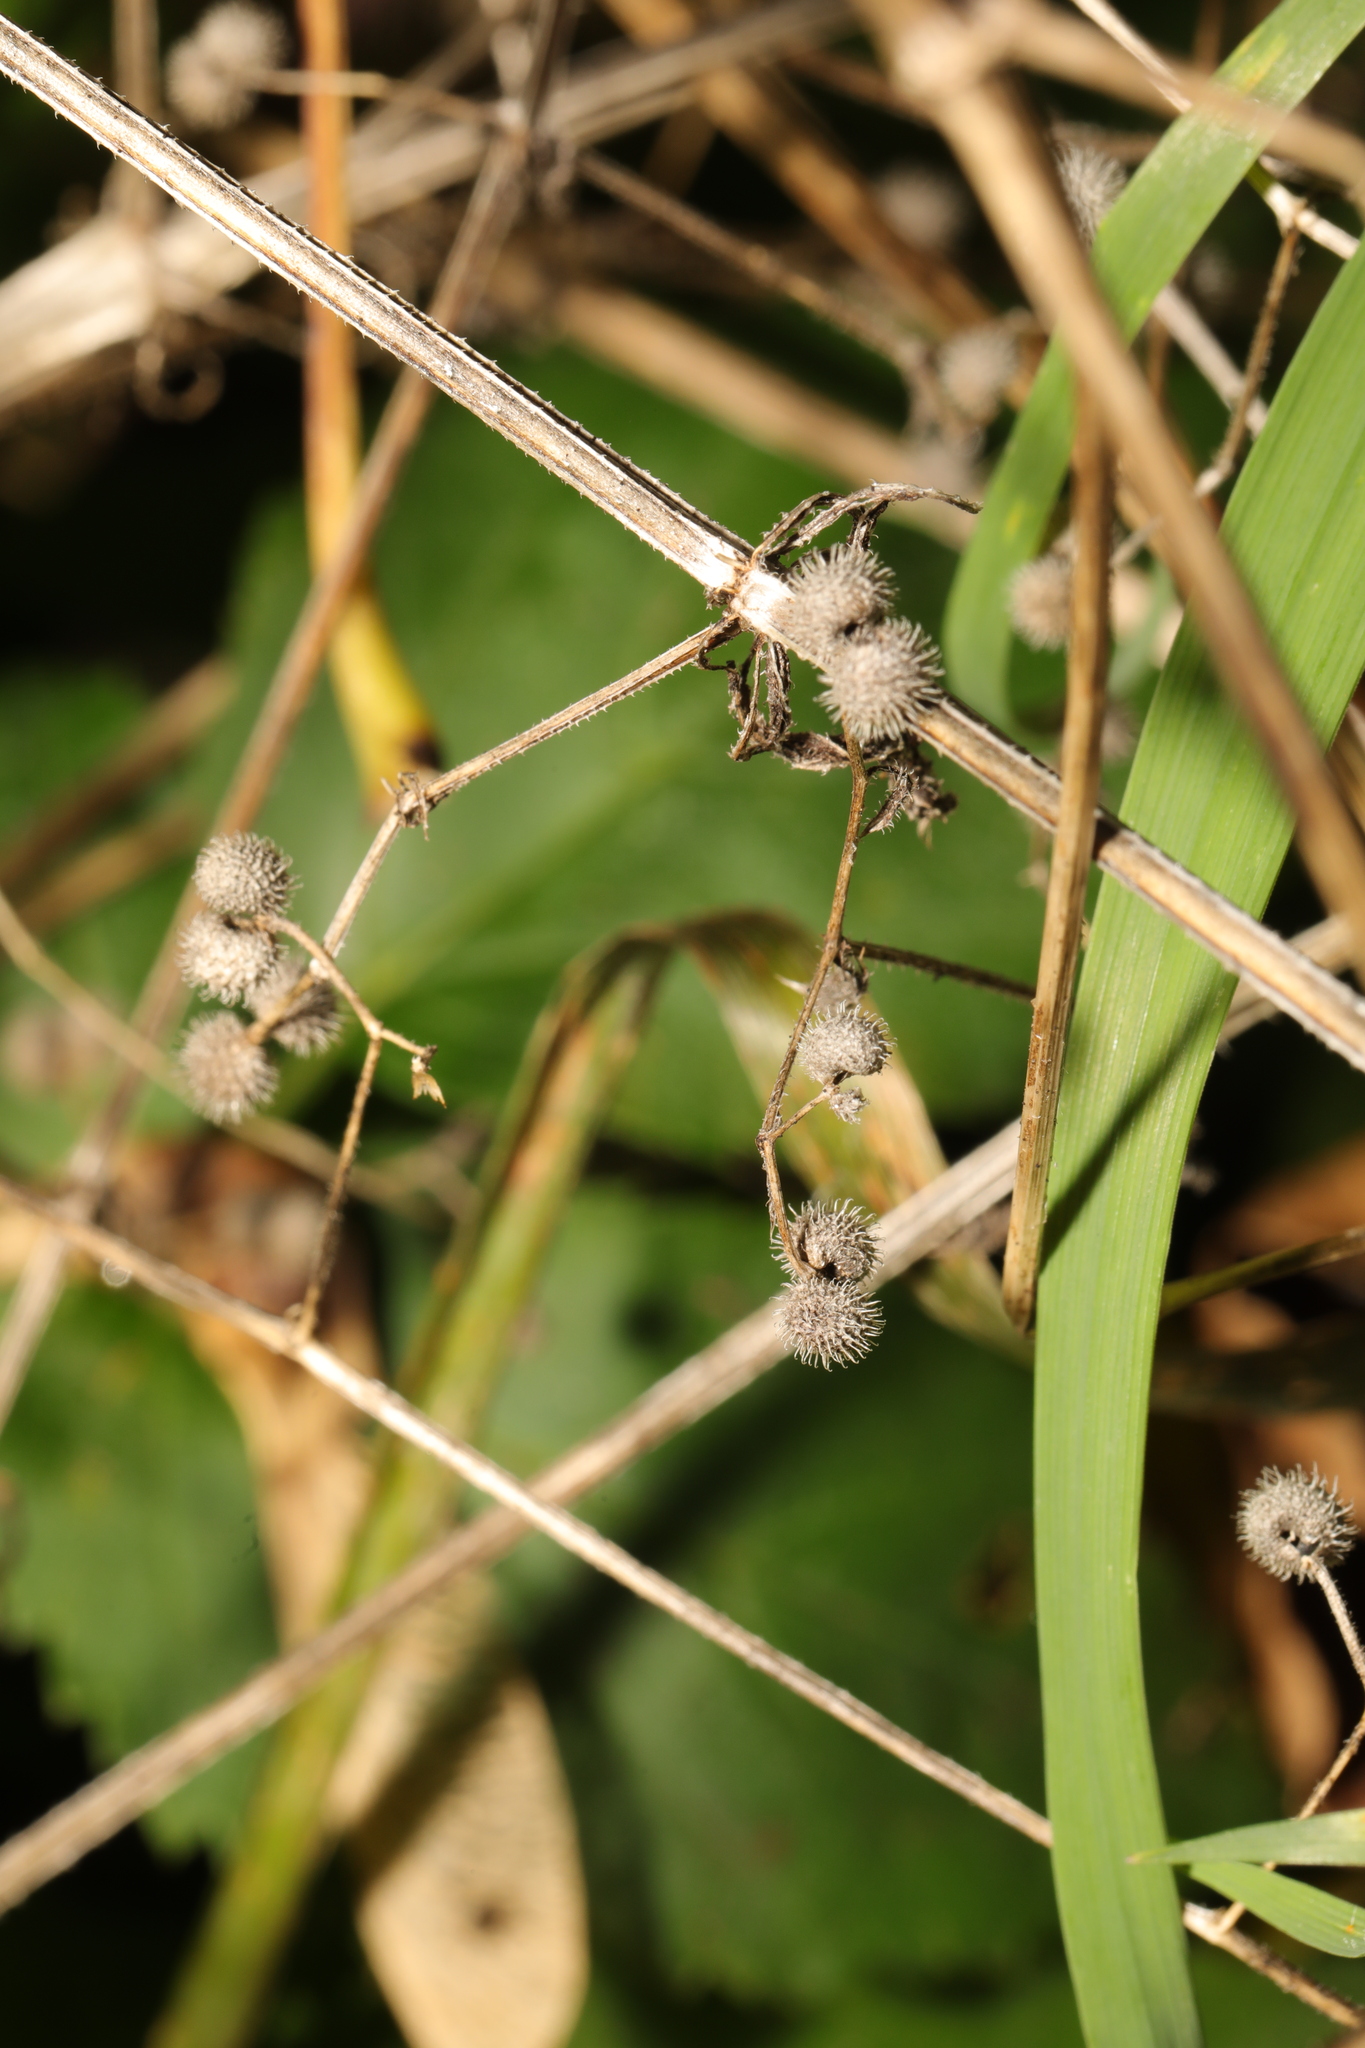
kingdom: Plantae
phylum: Tracheophyta
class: Magnoliopsida
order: Gentianales
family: Rubiaceae
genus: Galium
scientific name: Galium aparine
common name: Cleavers
